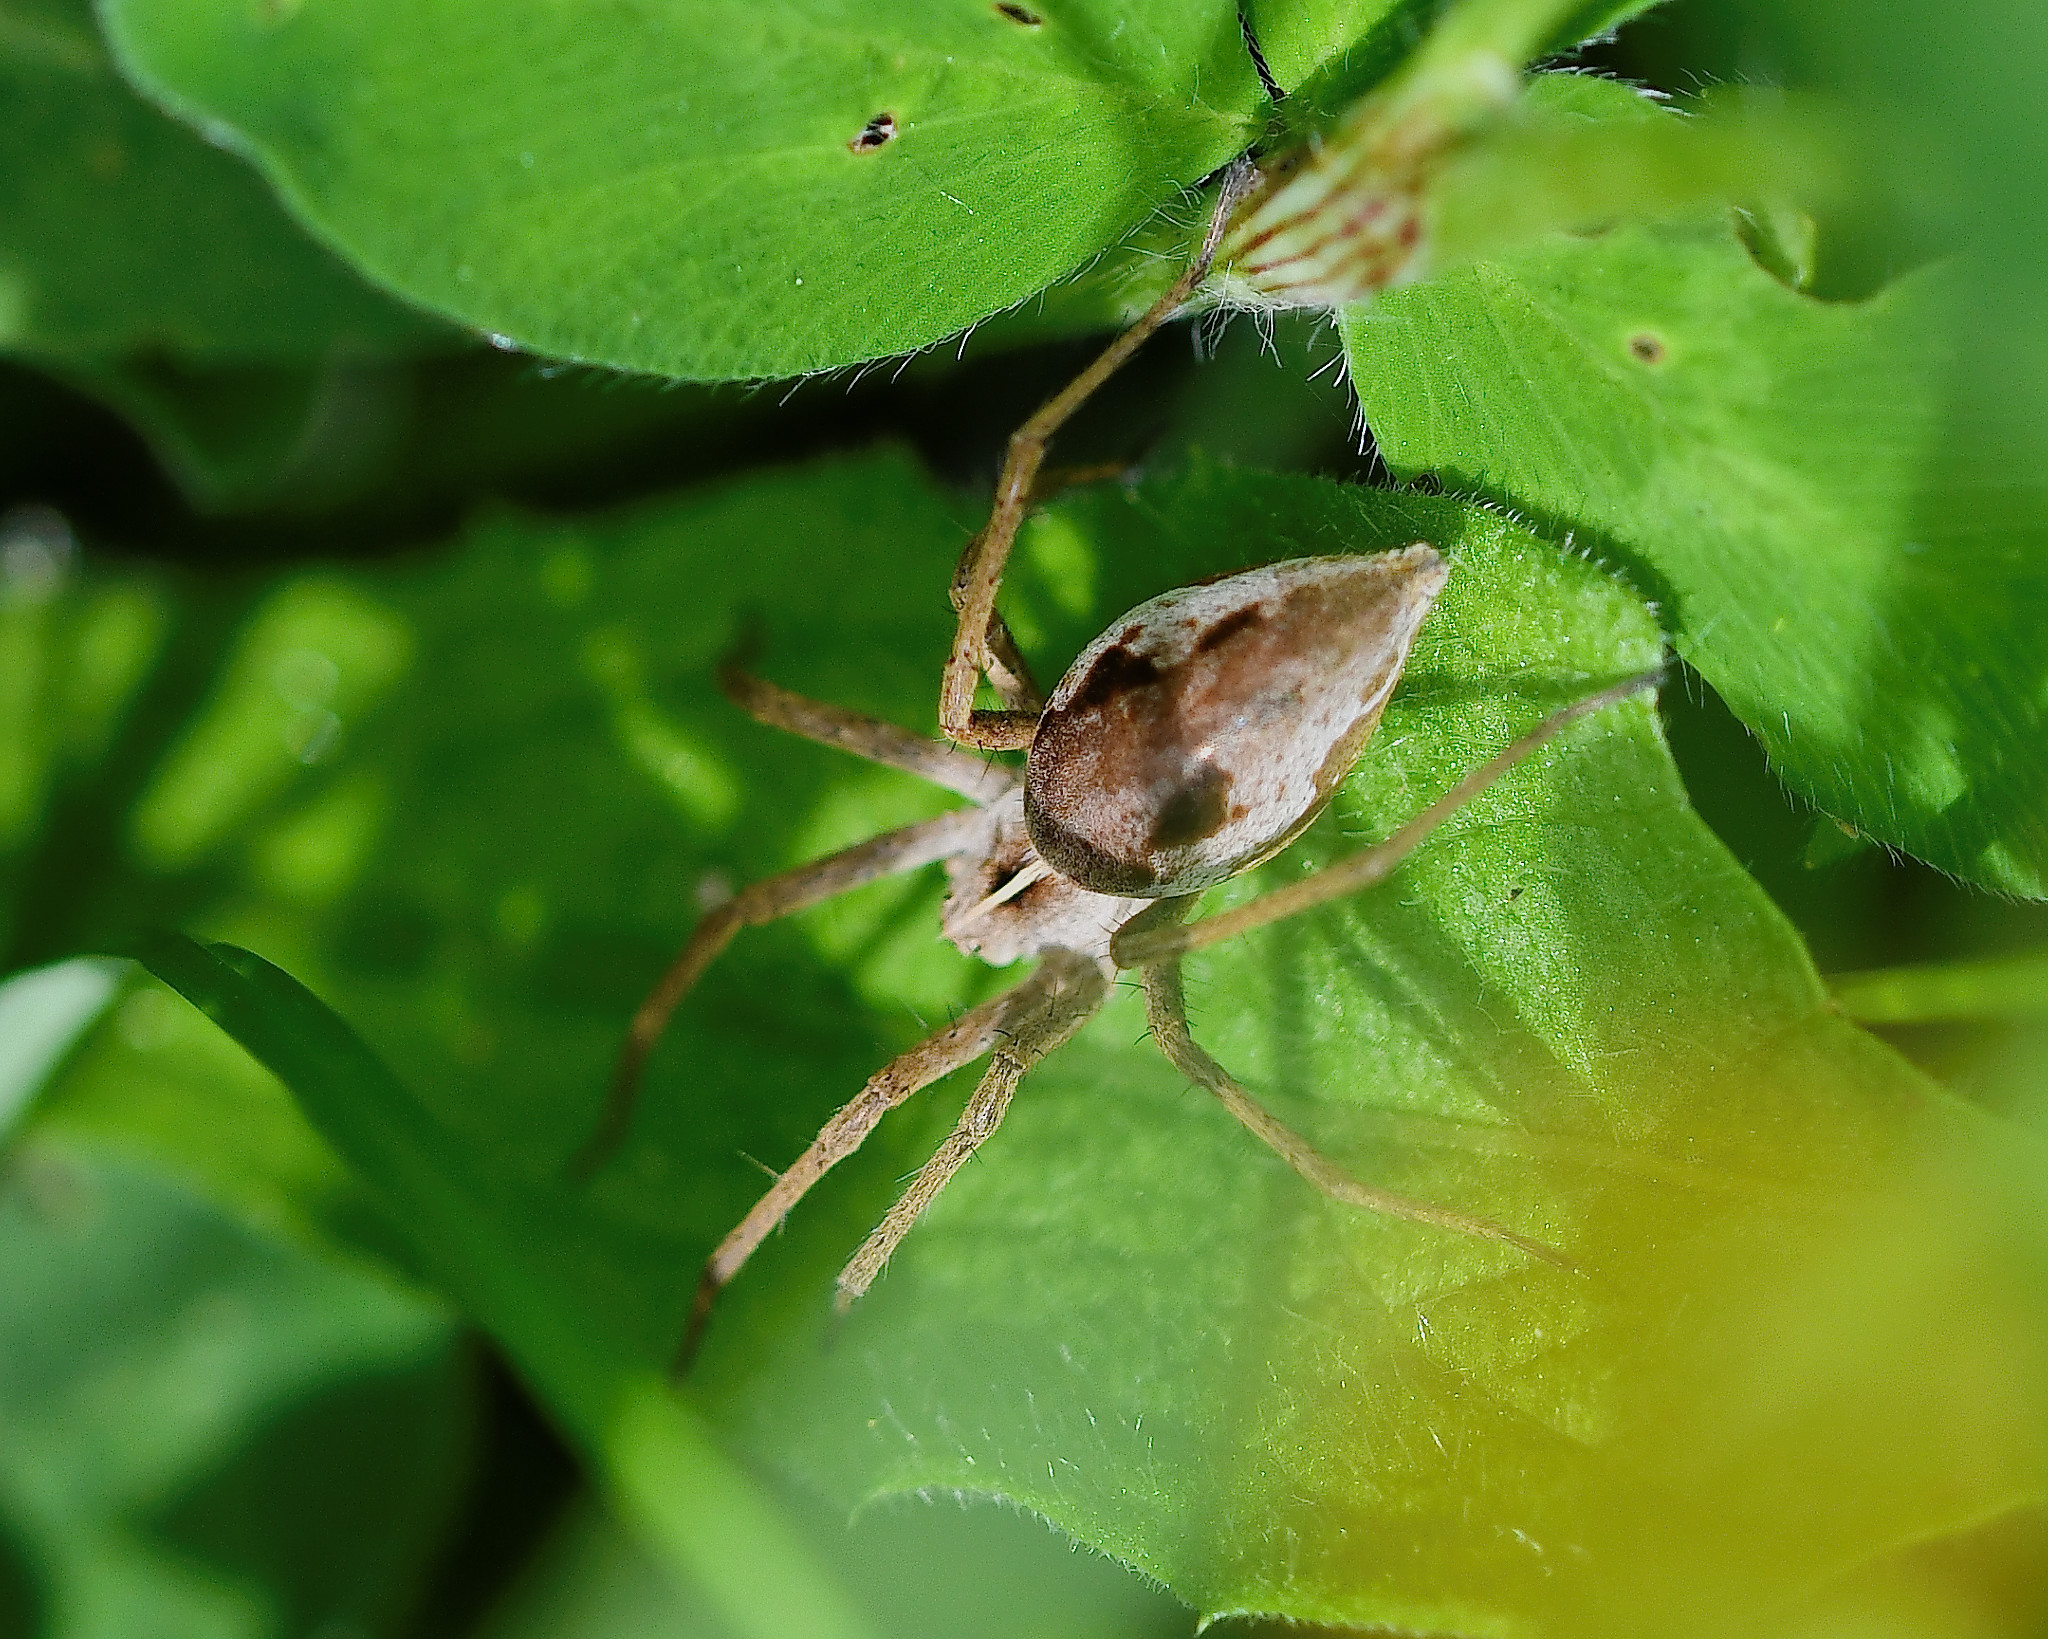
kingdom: Animalia
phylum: Arthropoda
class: Arachnida
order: Araneae
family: Pisauridae
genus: Pisaura
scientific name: Pisaura mirabilis
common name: Tent spider
